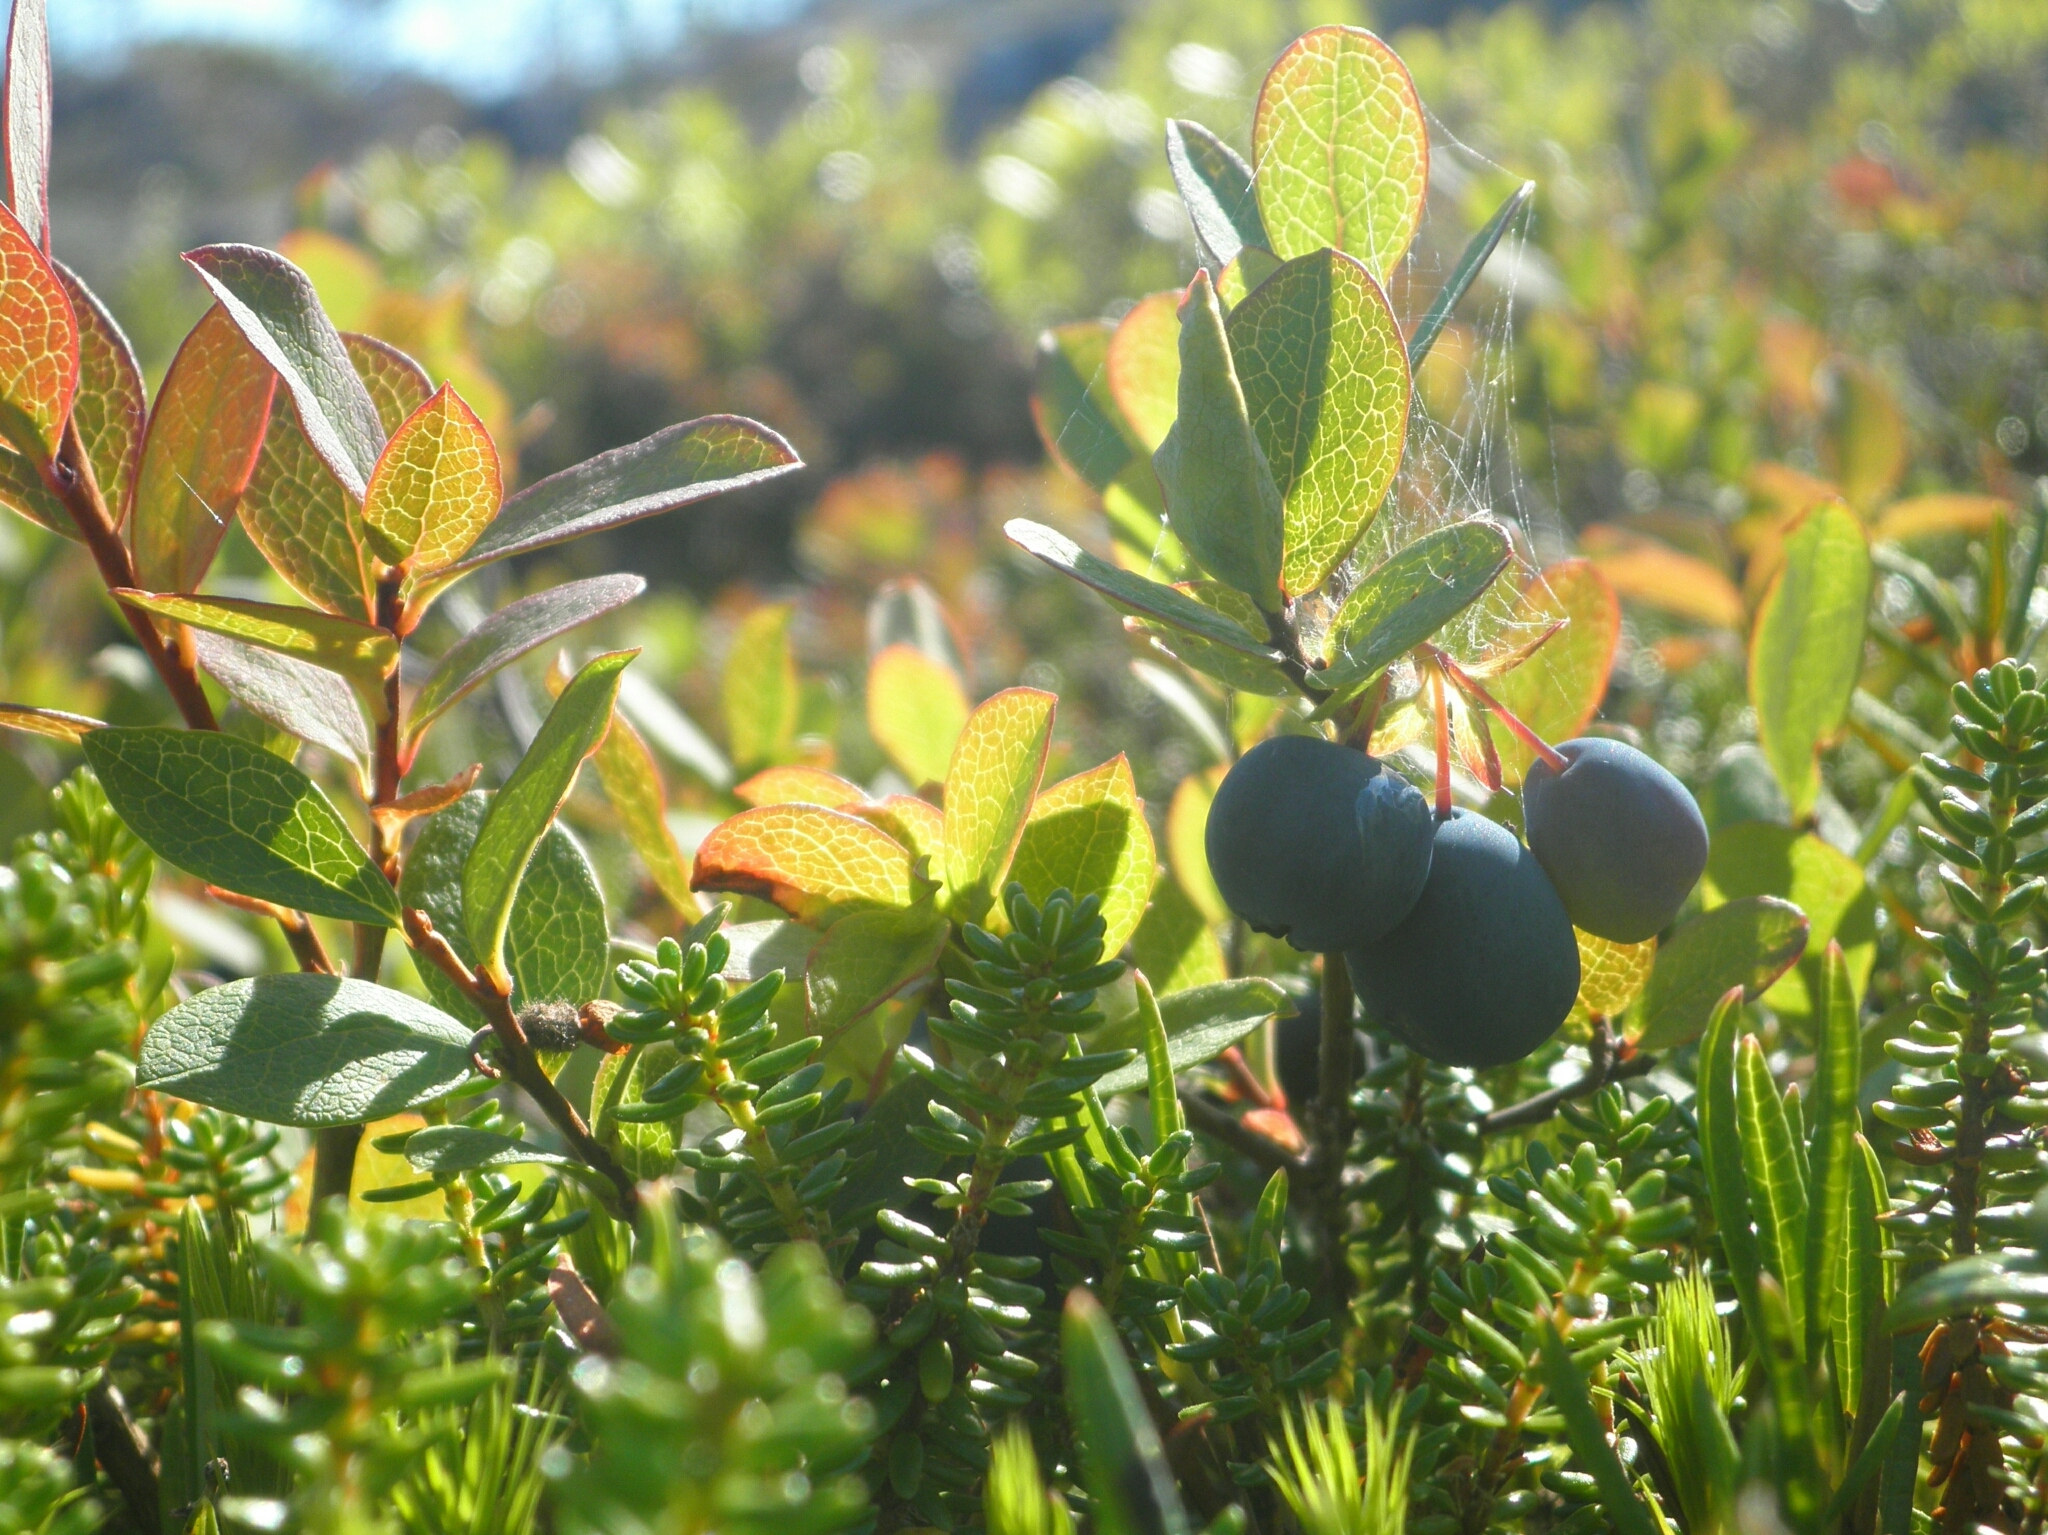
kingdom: Plantae
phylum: Tracheophyta
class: Magnoliopsida
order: Ericales
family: Ericaceae
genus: Vaccinium
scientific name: Vaccinium uliginosum
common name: Bog bilberry
